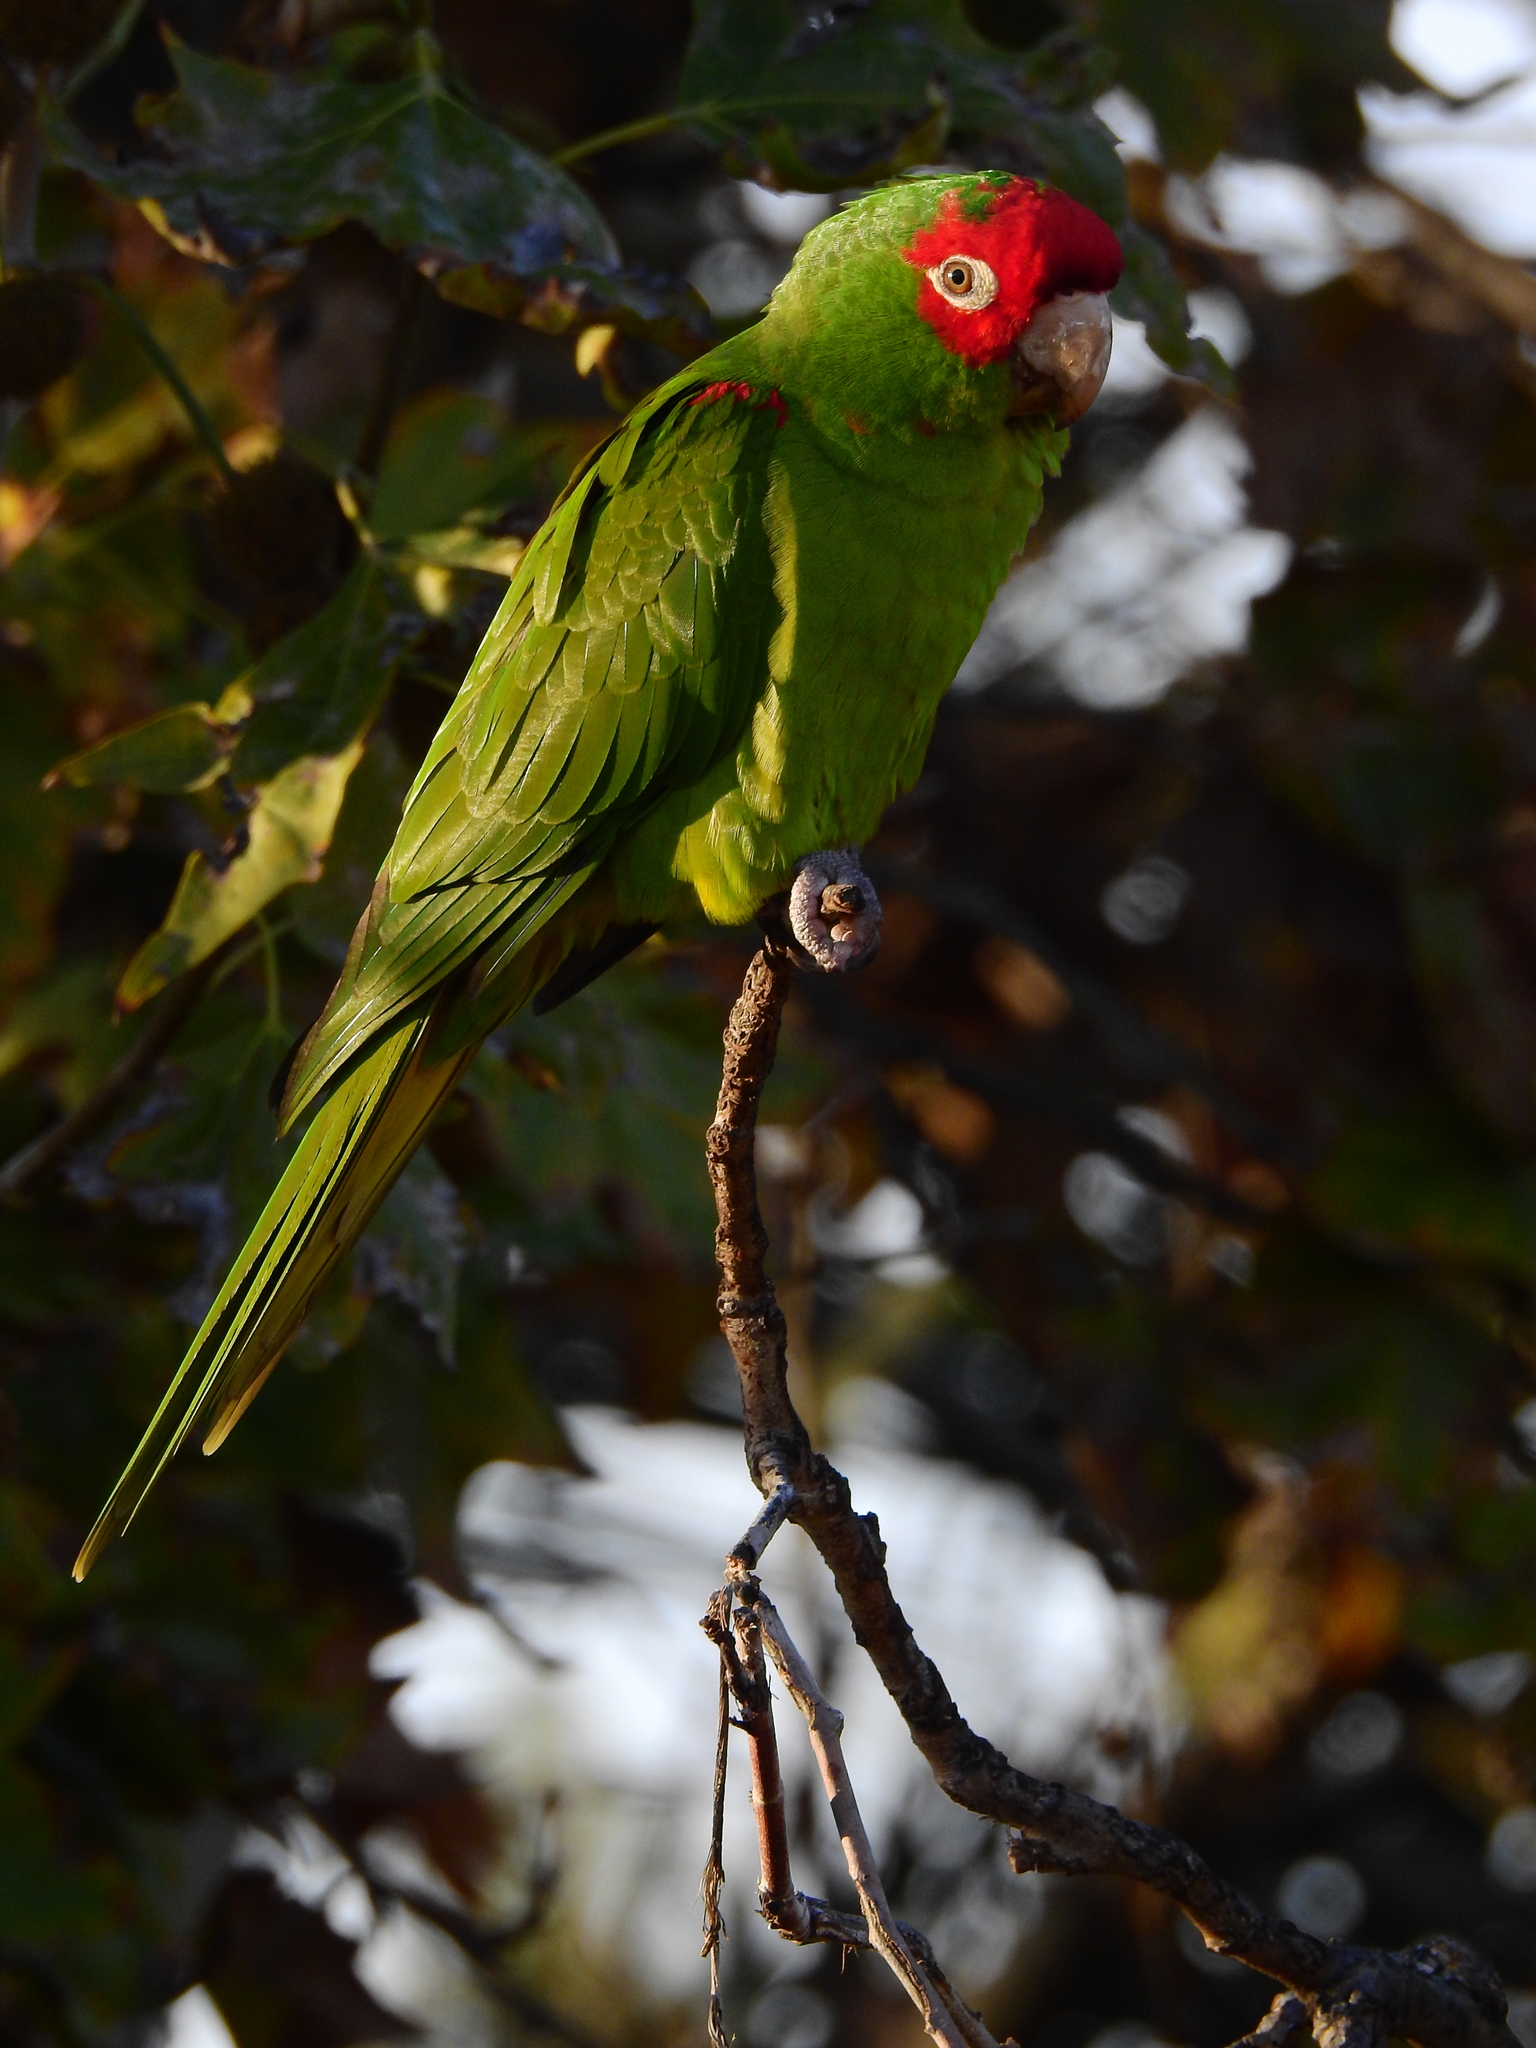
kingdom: Animalia
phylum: Chordata
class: Aves
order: Psittaciformes
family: Psittacidae
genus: Aratinga
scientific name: Aratinga erythrogenys
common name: Red-masked parakeet
